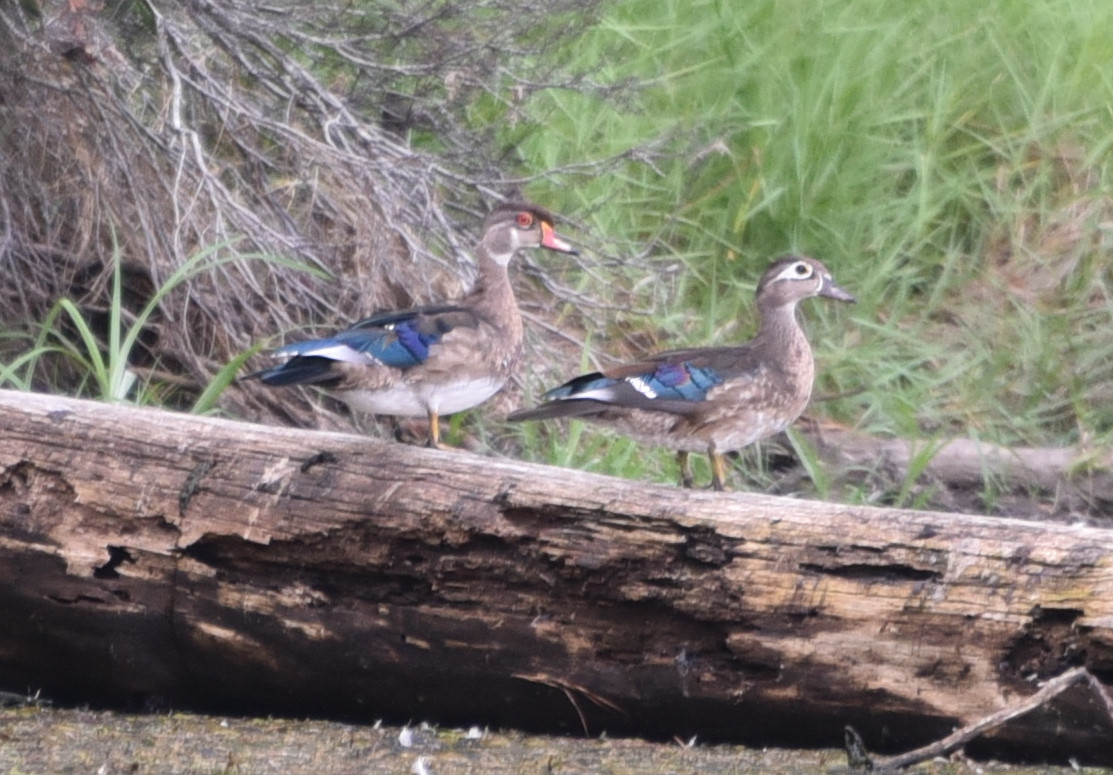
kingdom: Animalia
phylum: Chordata
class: Aves
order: Anseriformes
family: Anatidae
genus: Aix
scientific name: Aix sponsa
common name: Wood duck
